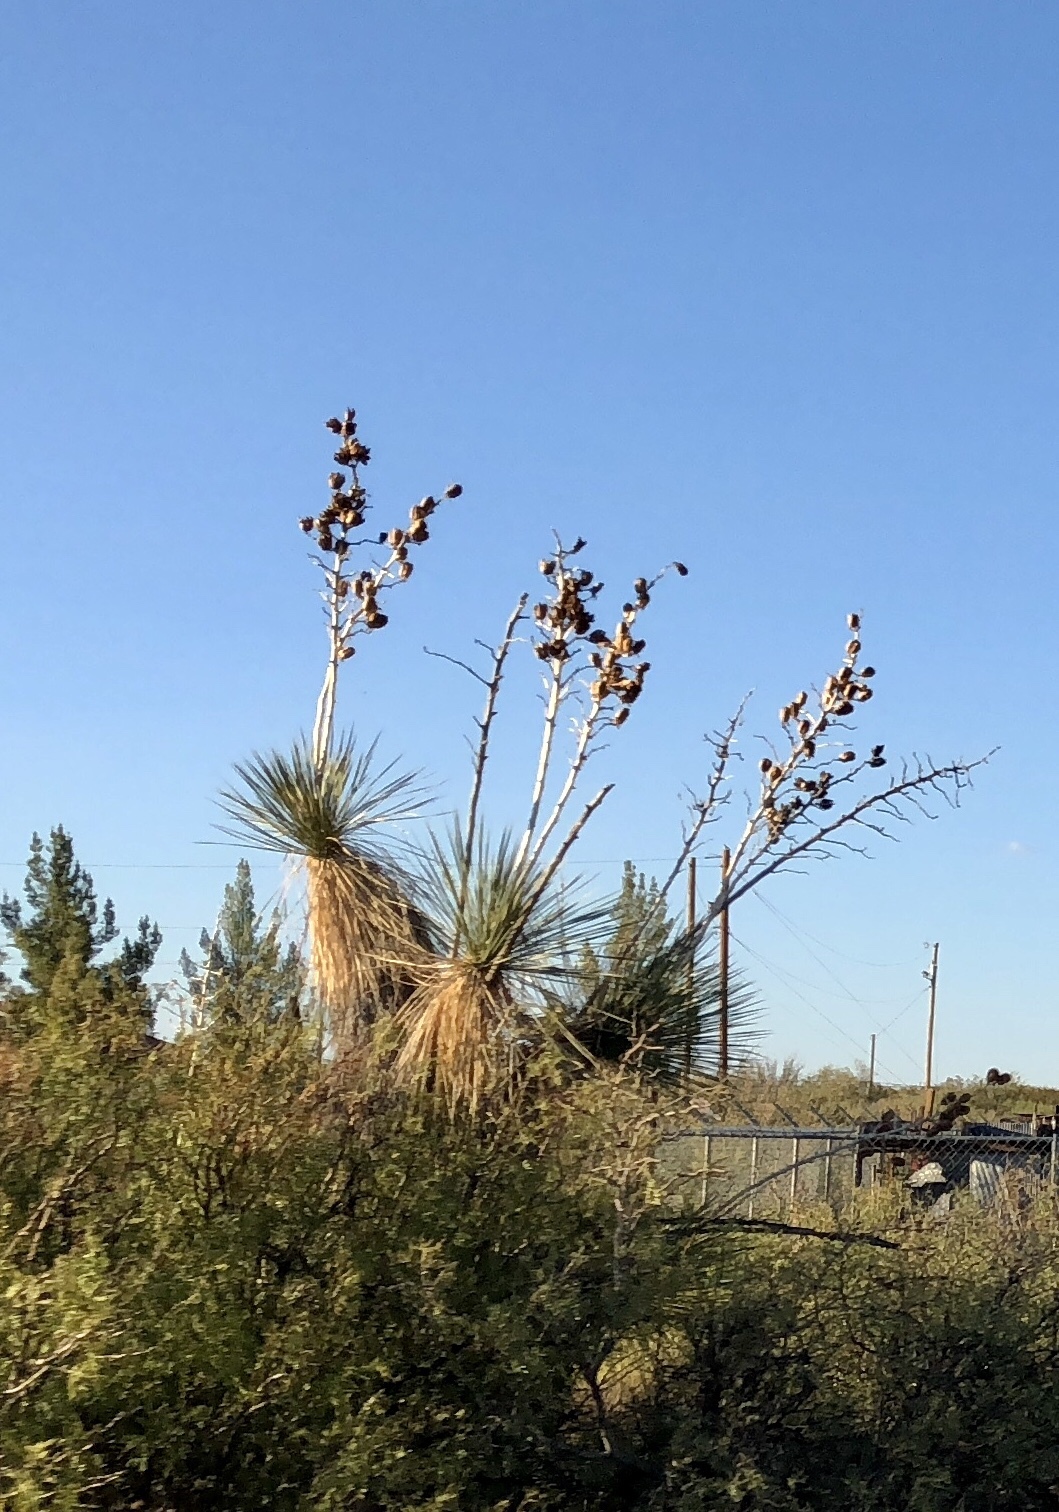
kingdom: Plantae
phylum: Tracheophyta
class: Liliopsida
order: Asparagales
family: Asparagaceae
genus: Yucca
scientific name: Yucca elata
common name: Palmella
